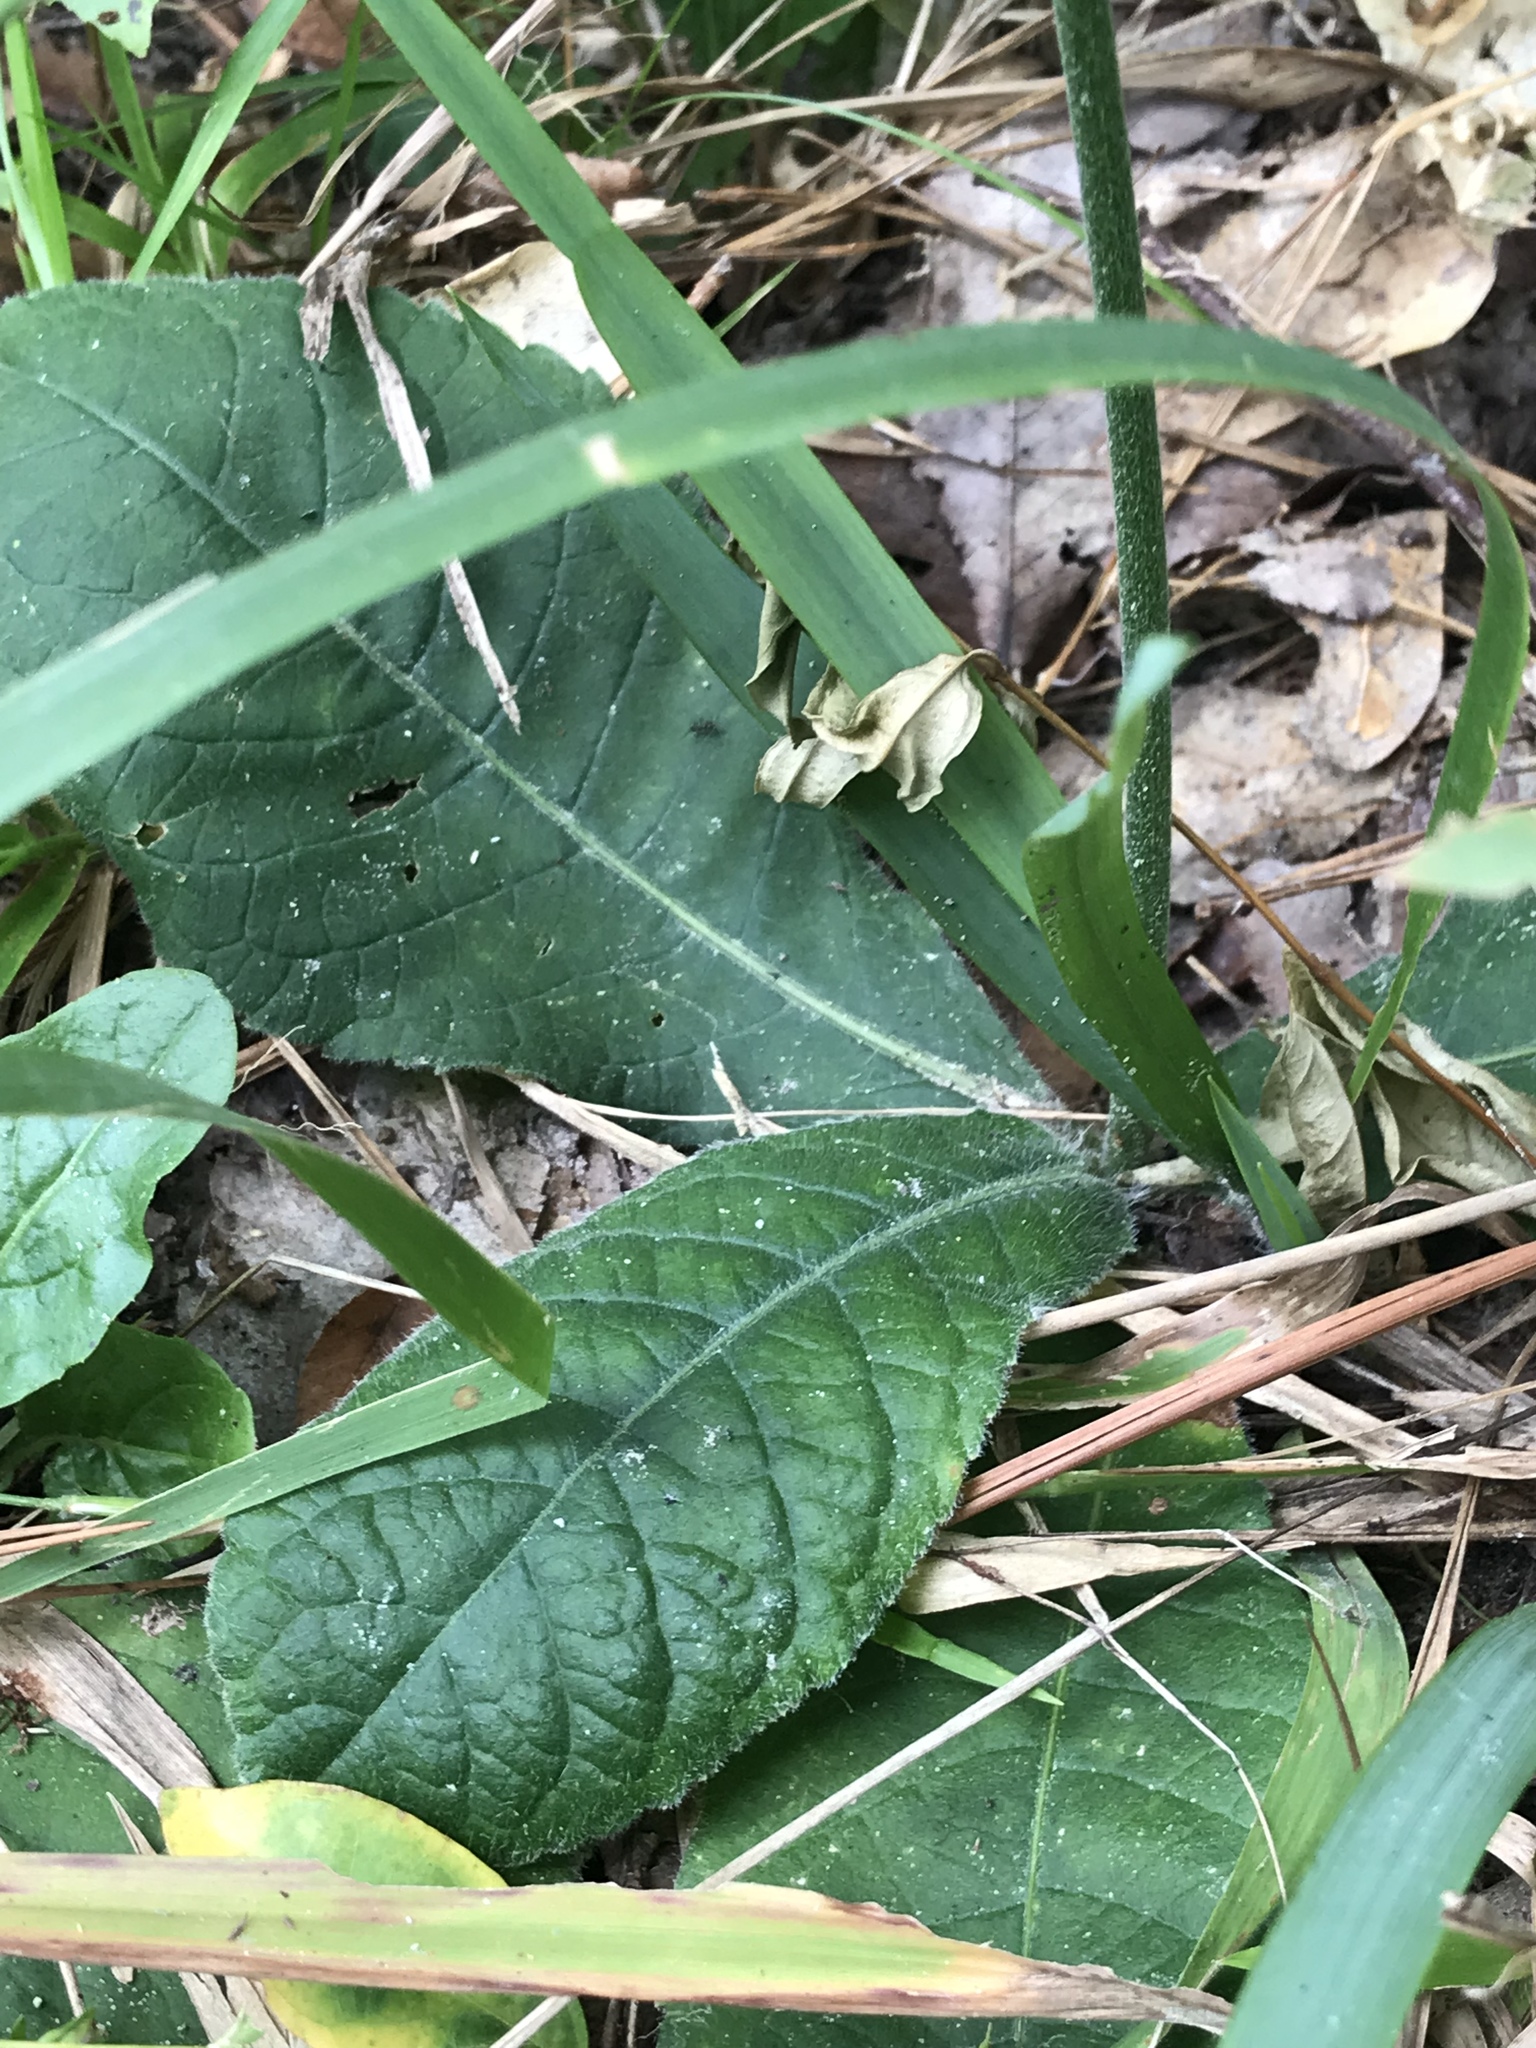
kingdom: Plantae
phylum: Tracheophyta
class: Magnoliopsida
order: Asterales
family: Asteraceae
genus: Elephantopus
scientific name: Elephantopus tomentosus
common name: Tobacco-weed
